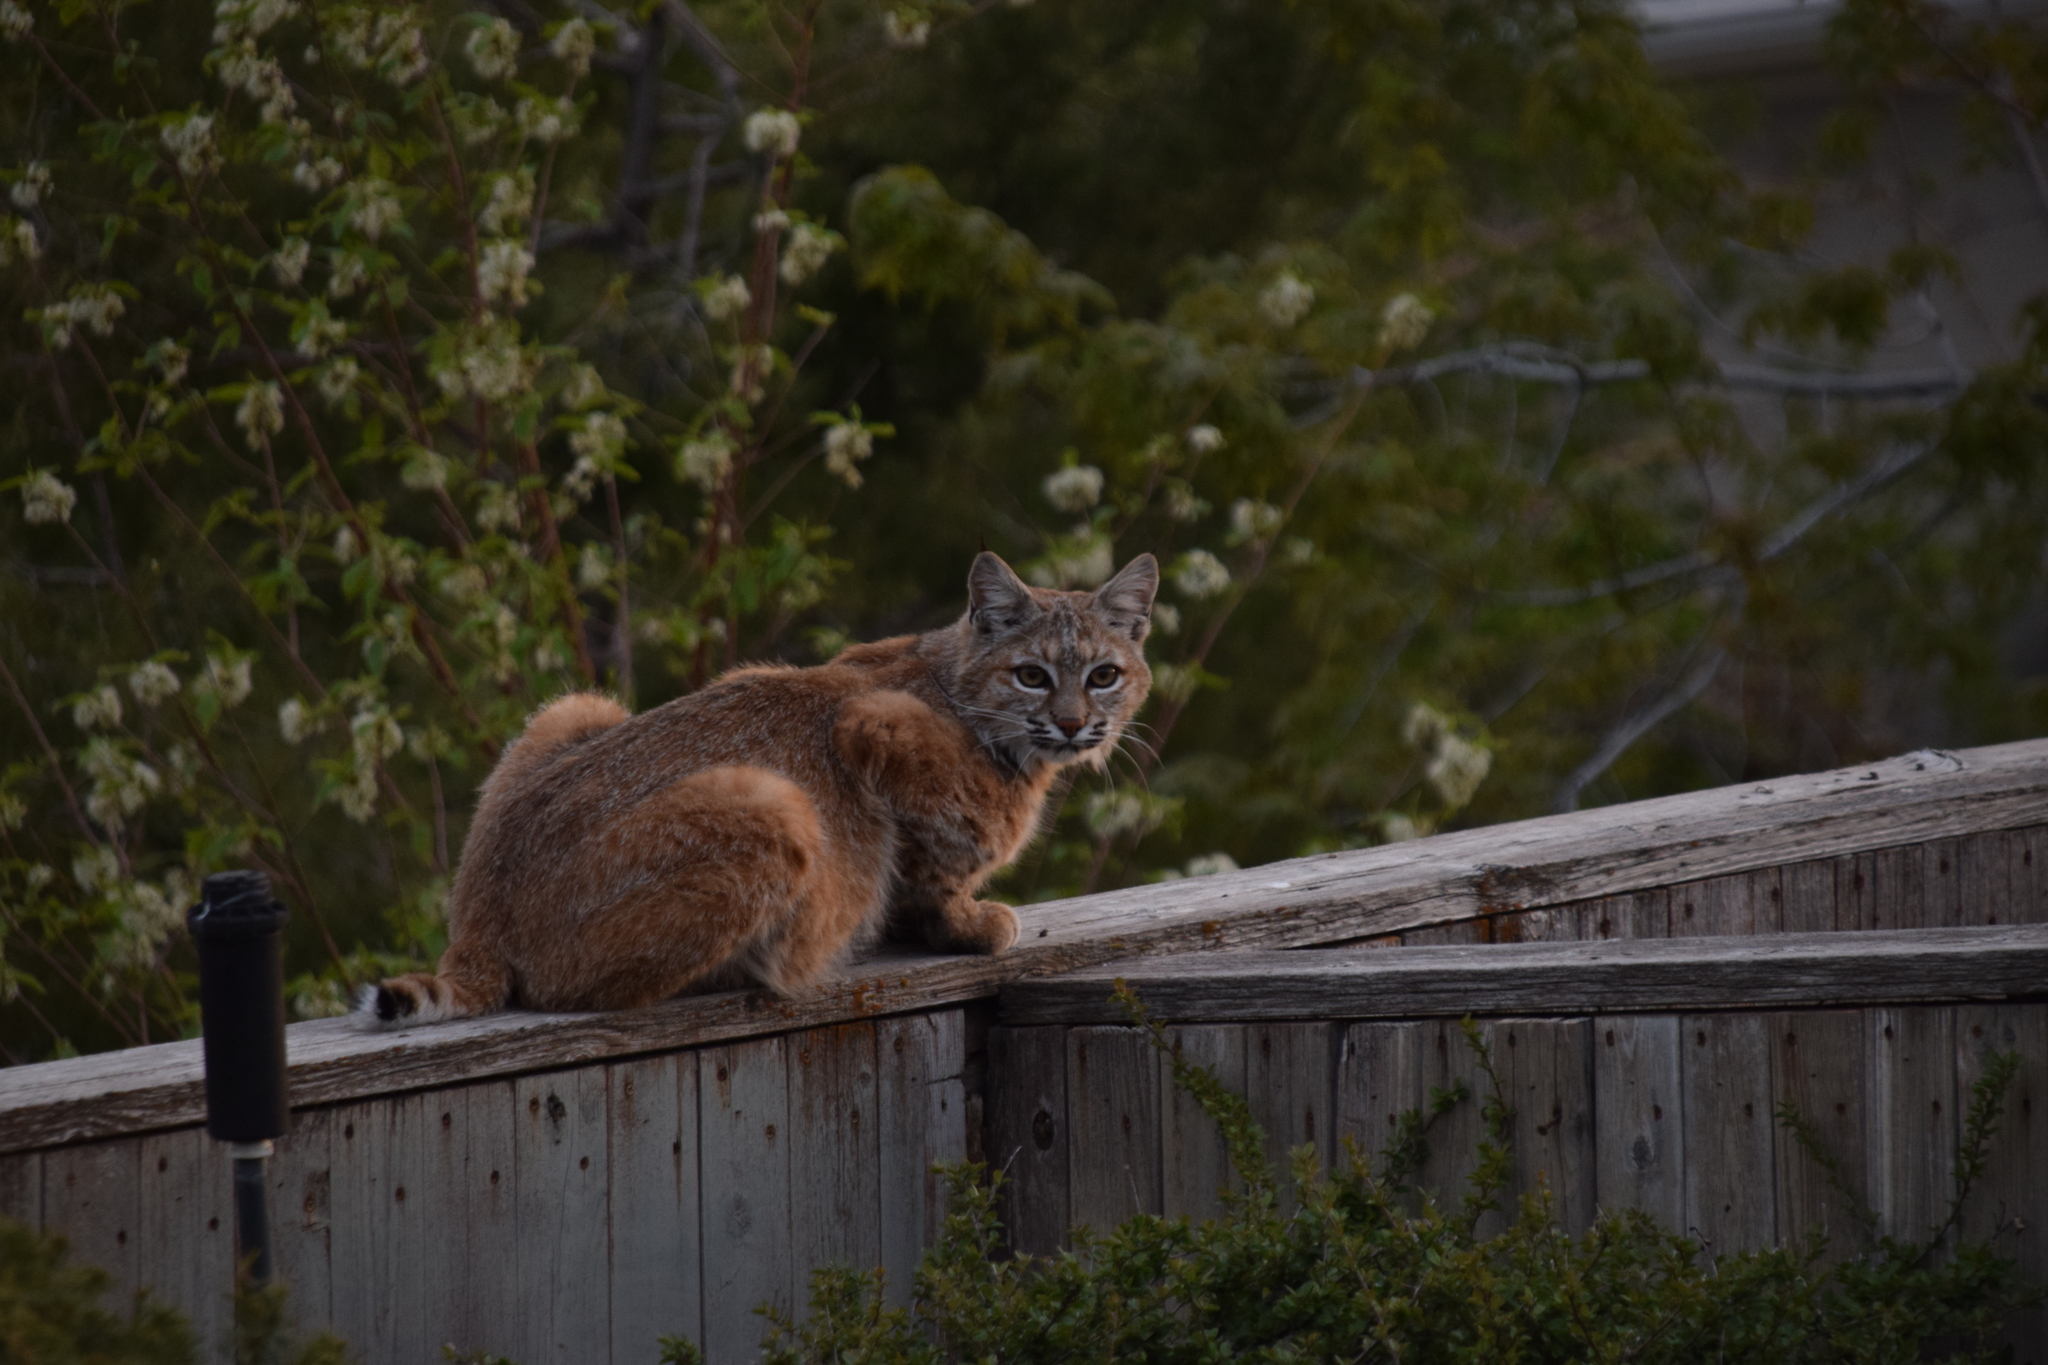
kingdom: Animalia
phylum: Chordata
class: Mammalia
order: Carnivora
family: Felidae
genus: Lynx
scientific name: Lynx rufus
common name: Bobcat
